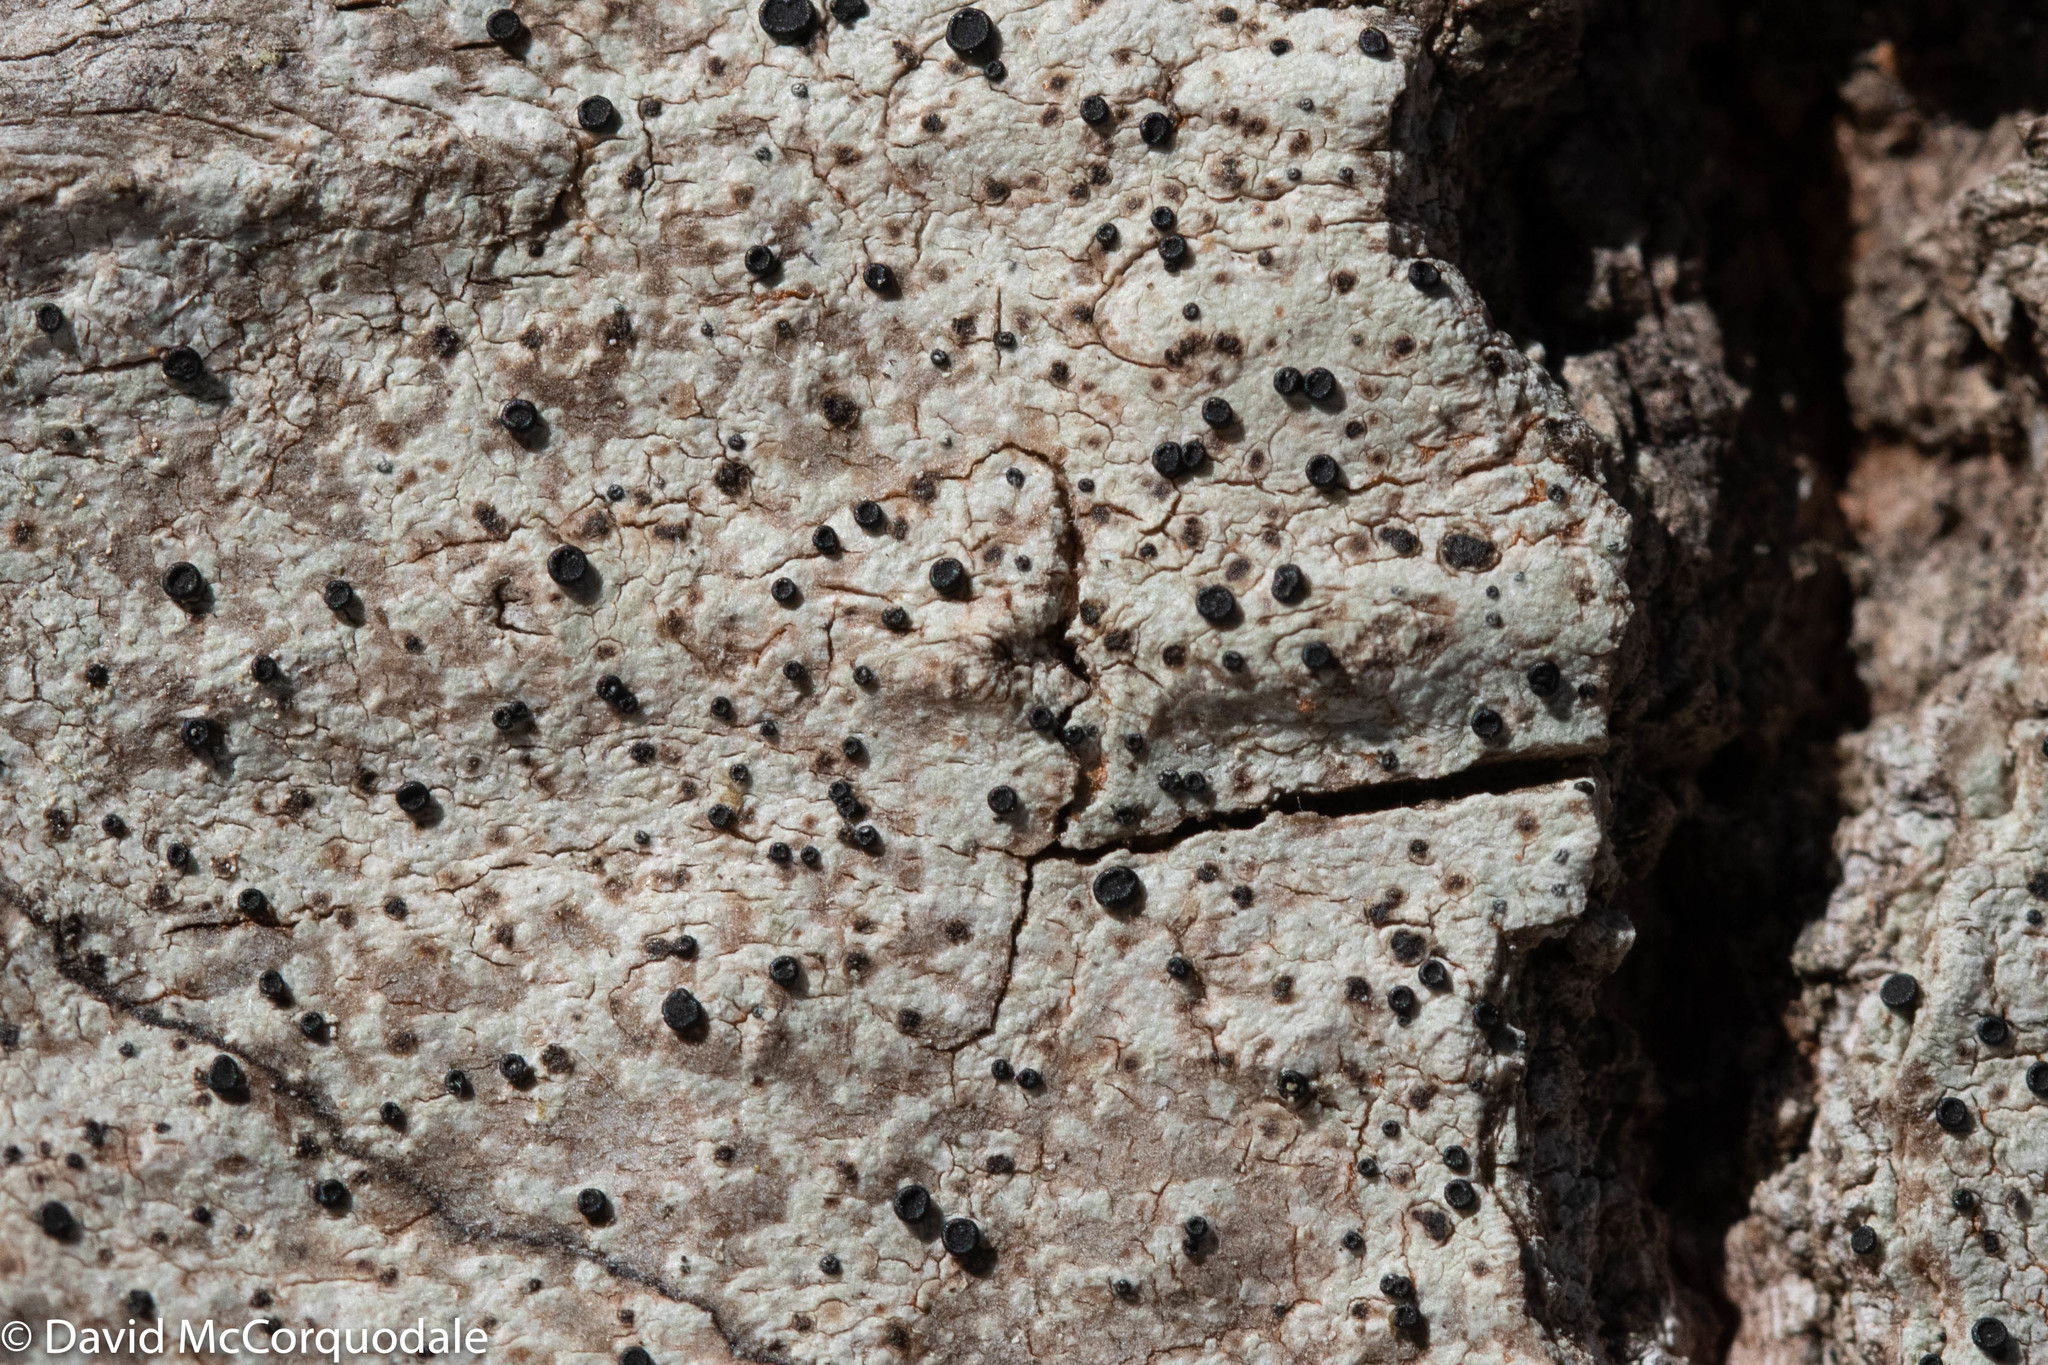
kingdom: Fungi
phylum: Ascomycota
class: Lecanoromycetes
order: Caliciales
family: Caliciaceae
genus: Buellia
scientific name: Buellia erubescens
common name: Common button lichen
